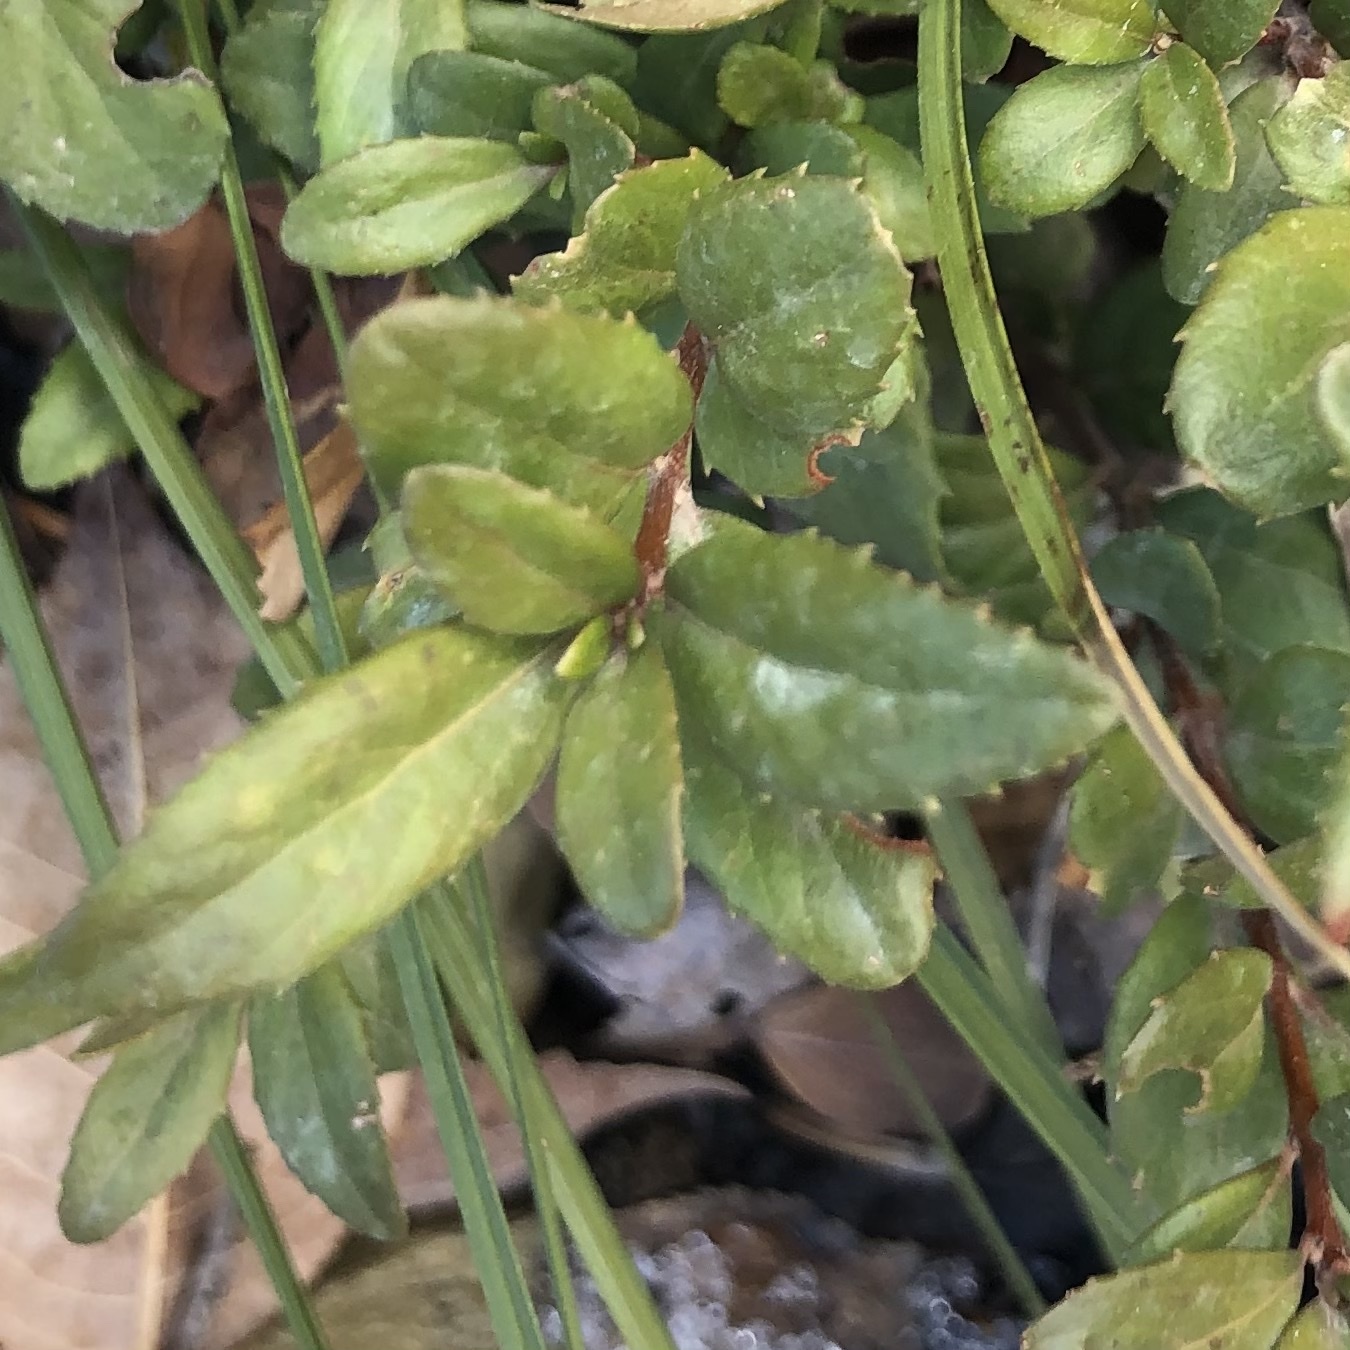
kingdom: Plantae
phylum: Tracheophyta
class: Magnoliopsida
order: Celastrales
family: Celastraceae
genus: Paxistima
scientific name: Paxistima myrsinites
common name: Mountain-lover
